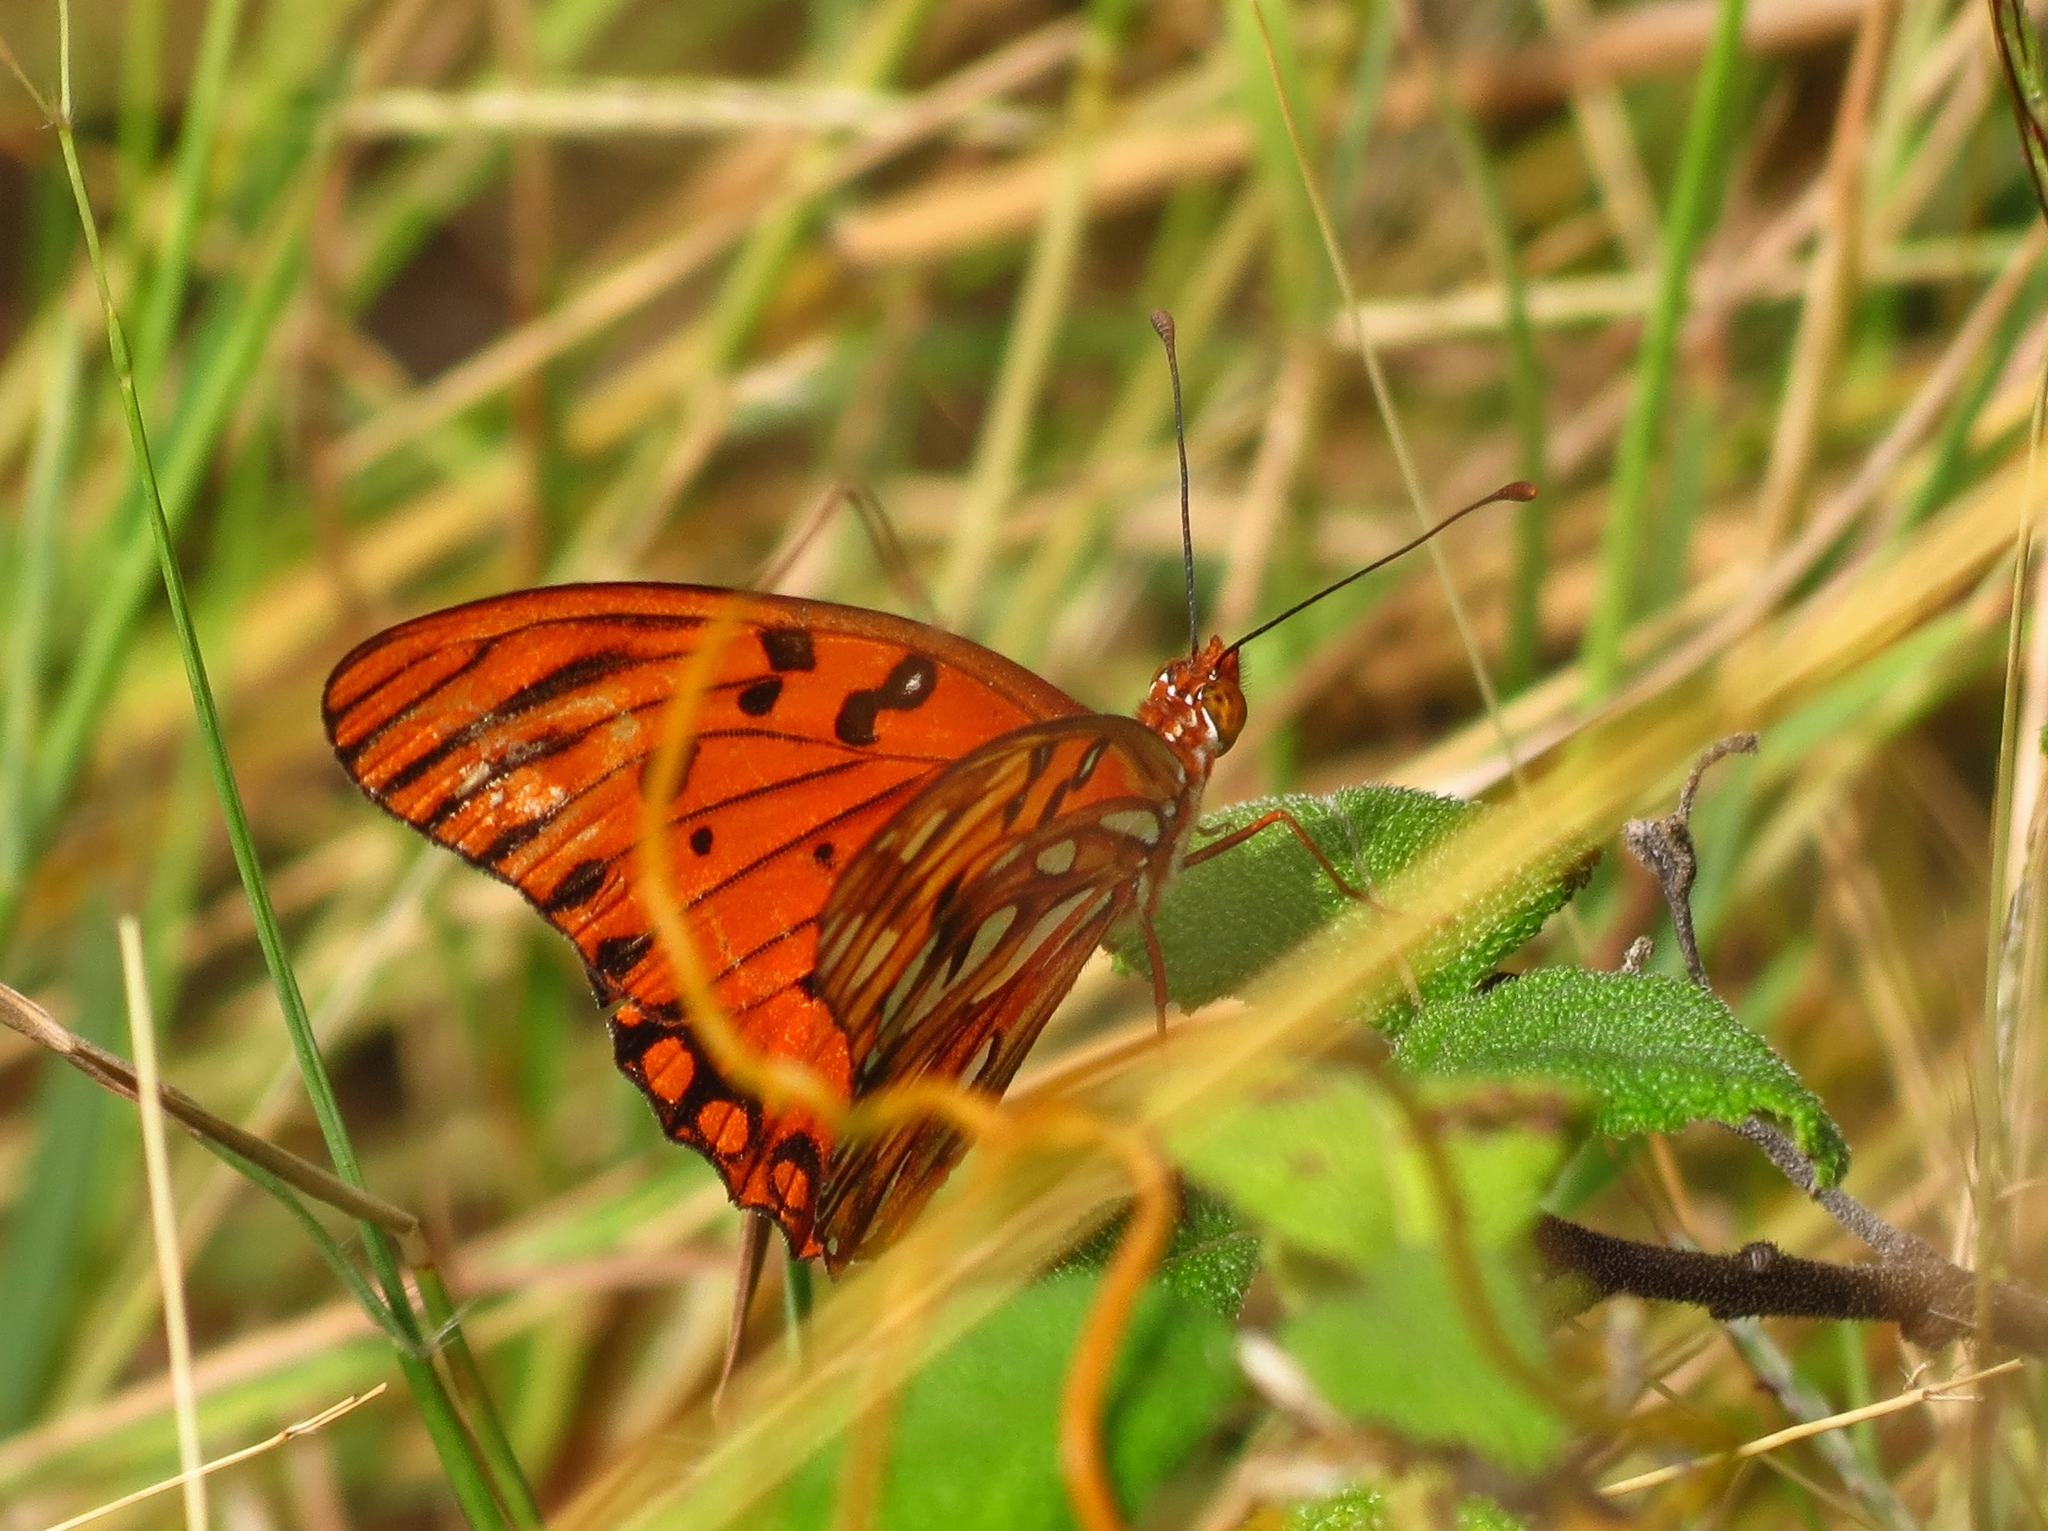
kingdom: Animalia
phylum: Arthropoda
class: Insecta
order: Lepidoptera
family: Nymphalidae
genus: Dione
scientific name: Dione vanillae
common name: Gulf fritillary
